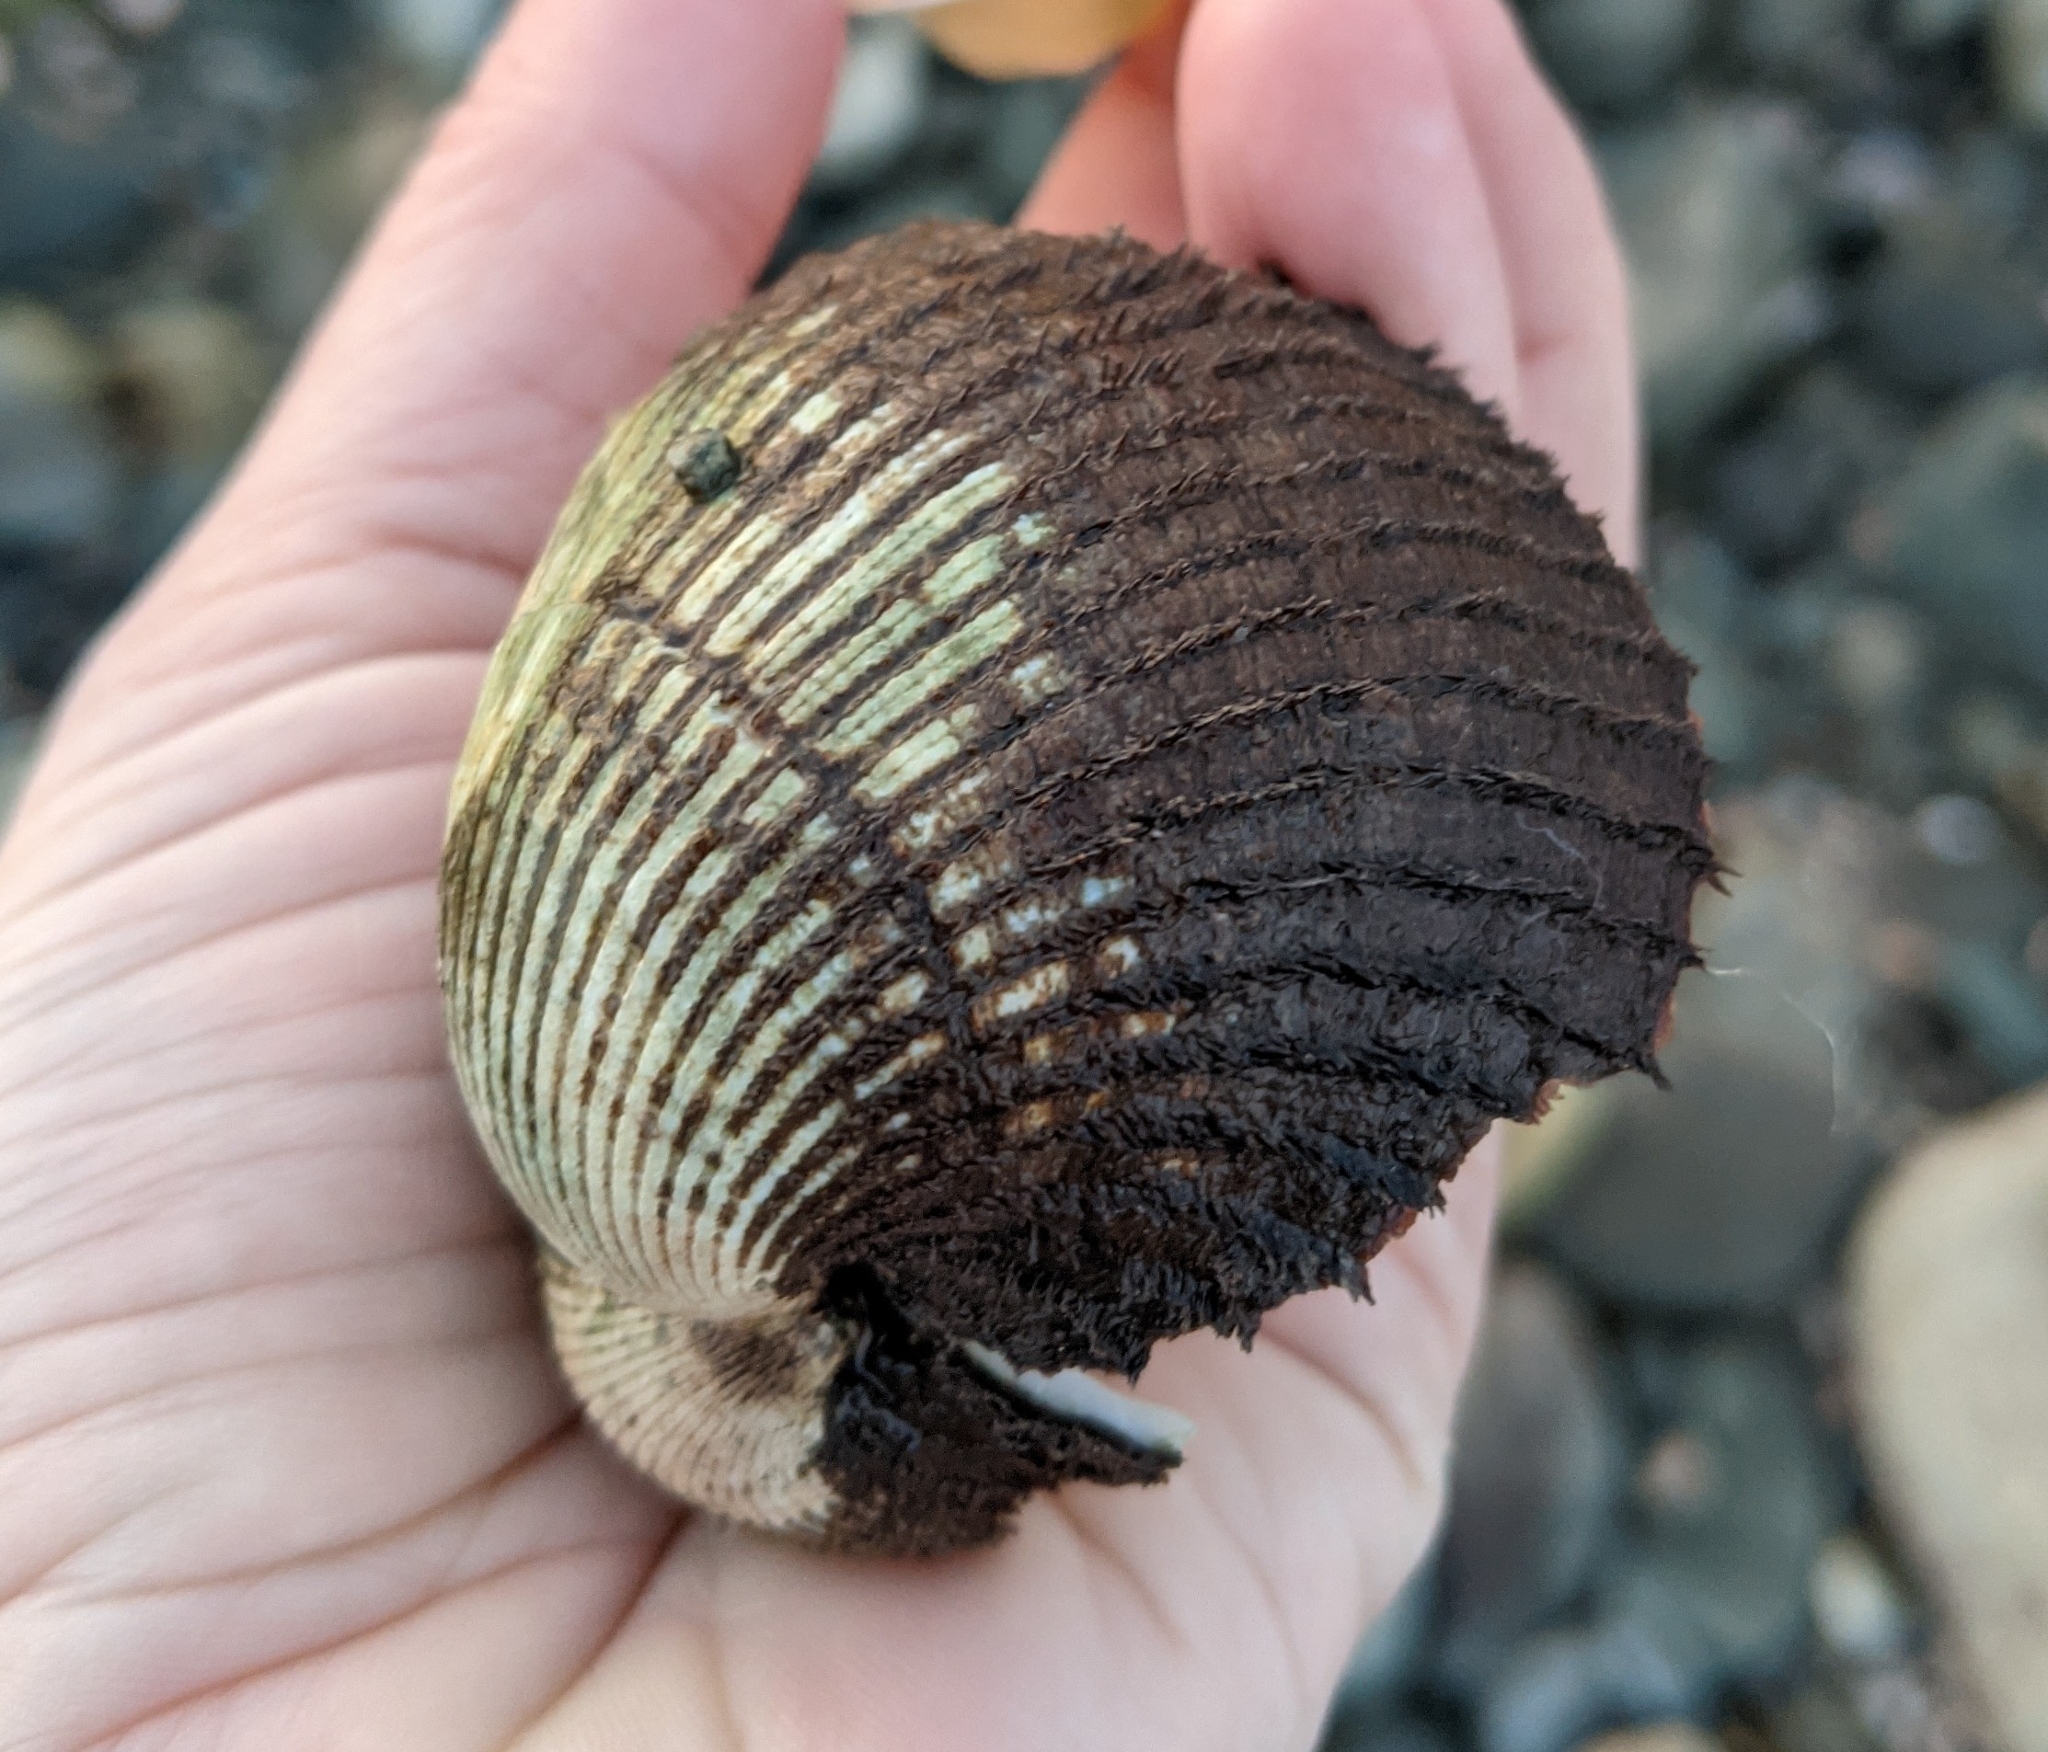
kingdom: Animalia
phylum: Mollusca
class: Bivalvia
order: Arcida
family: Arcidae
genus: Lunarca
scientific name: Lunarca ovalis
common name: Blood ark
